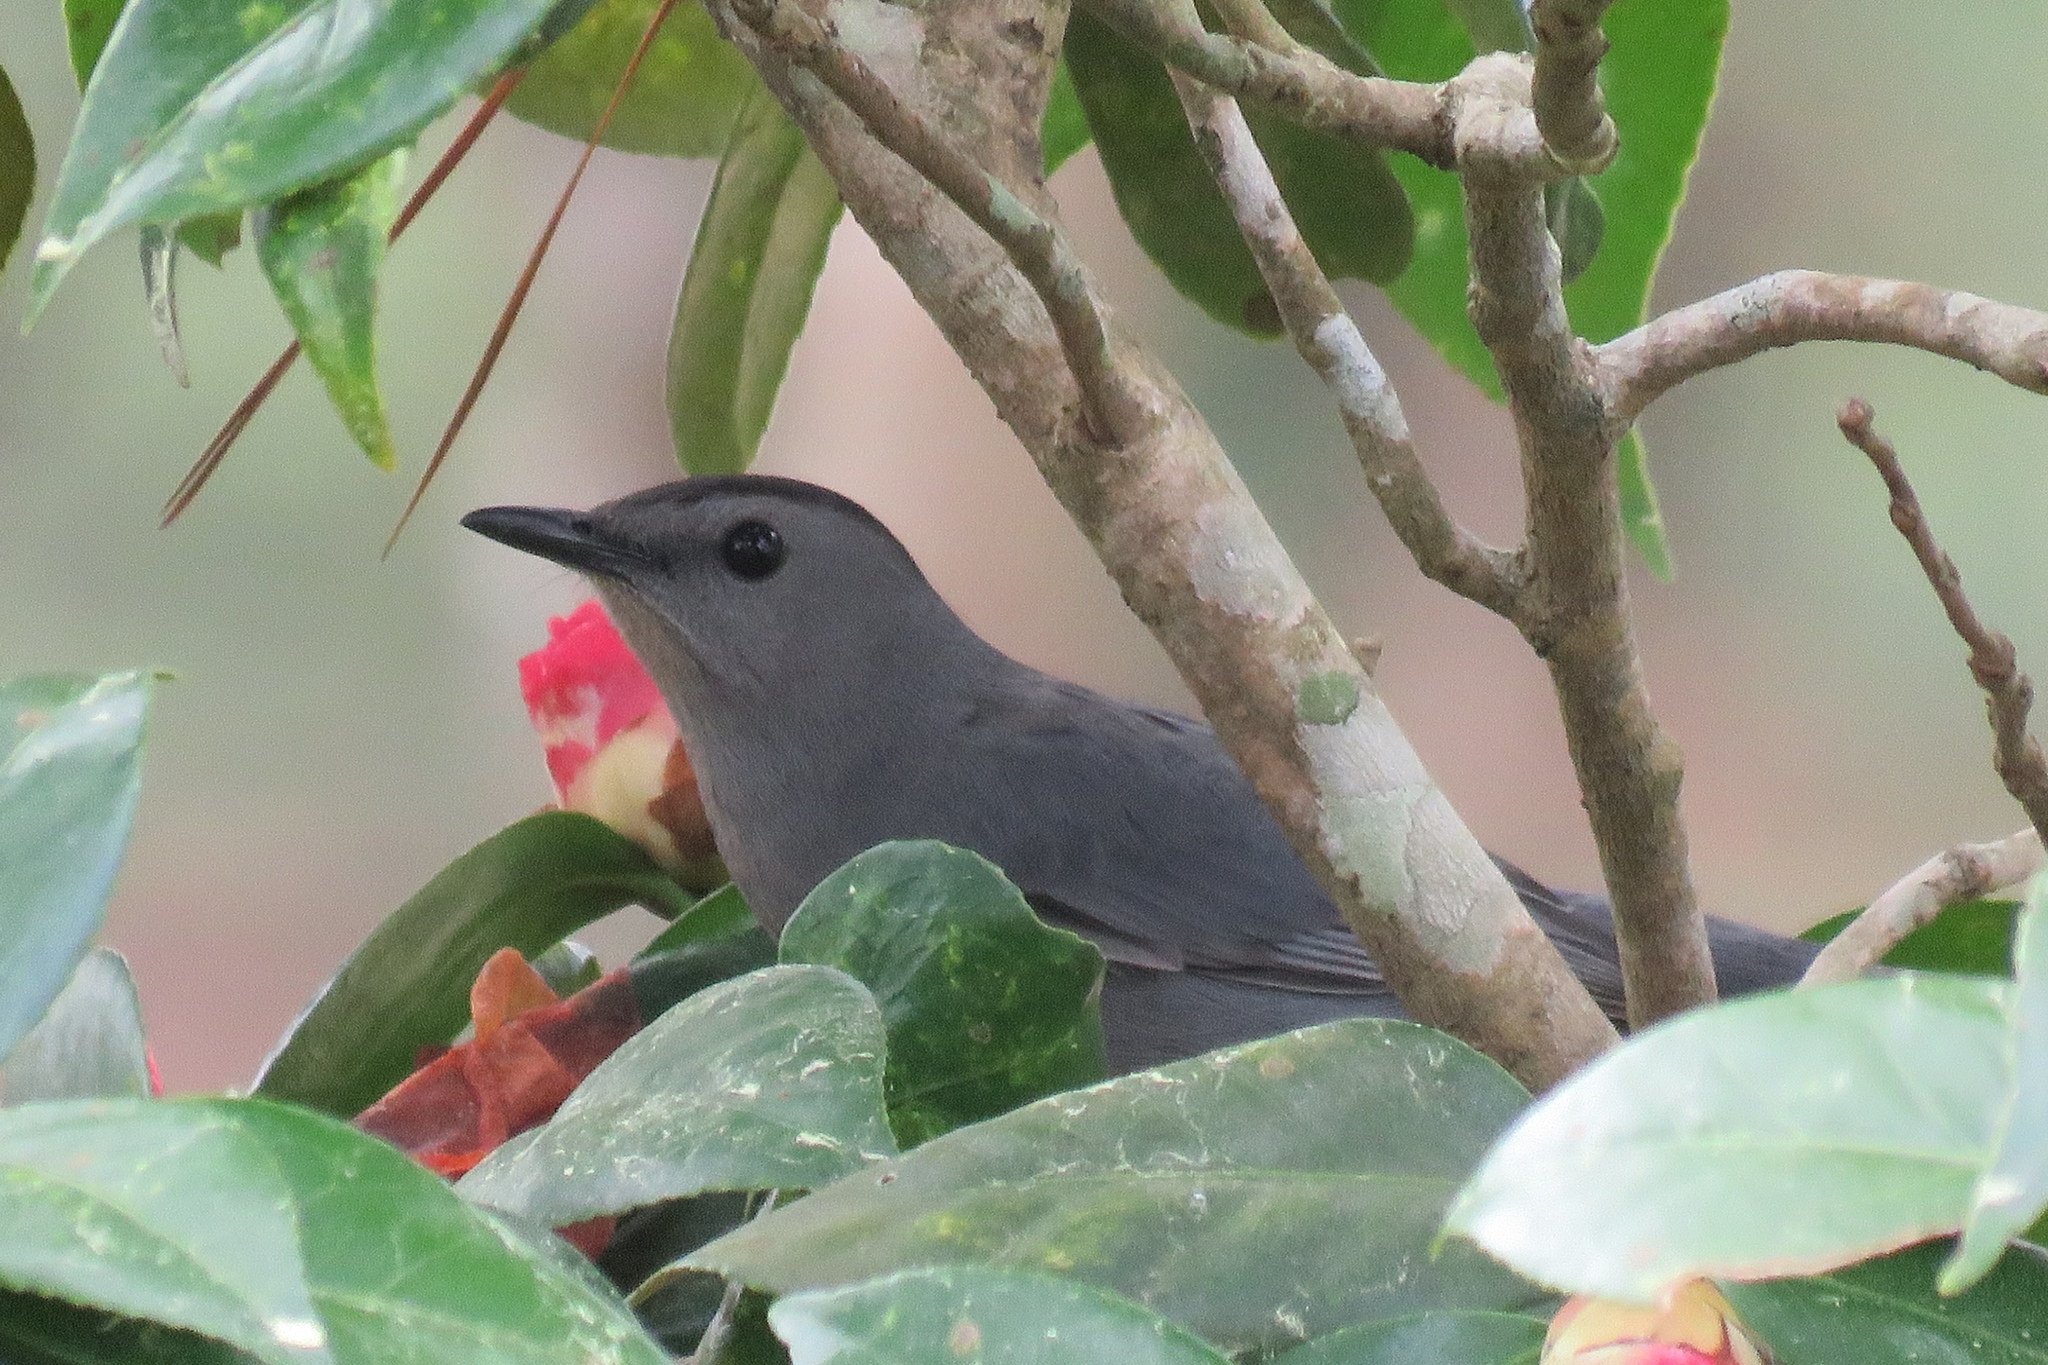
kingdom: Animalia
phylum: Chordata
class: Aves
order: Passeriformes
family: Mimidae
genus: Dumetella
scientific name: Dumetella carolinensis
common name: Gray catbird
